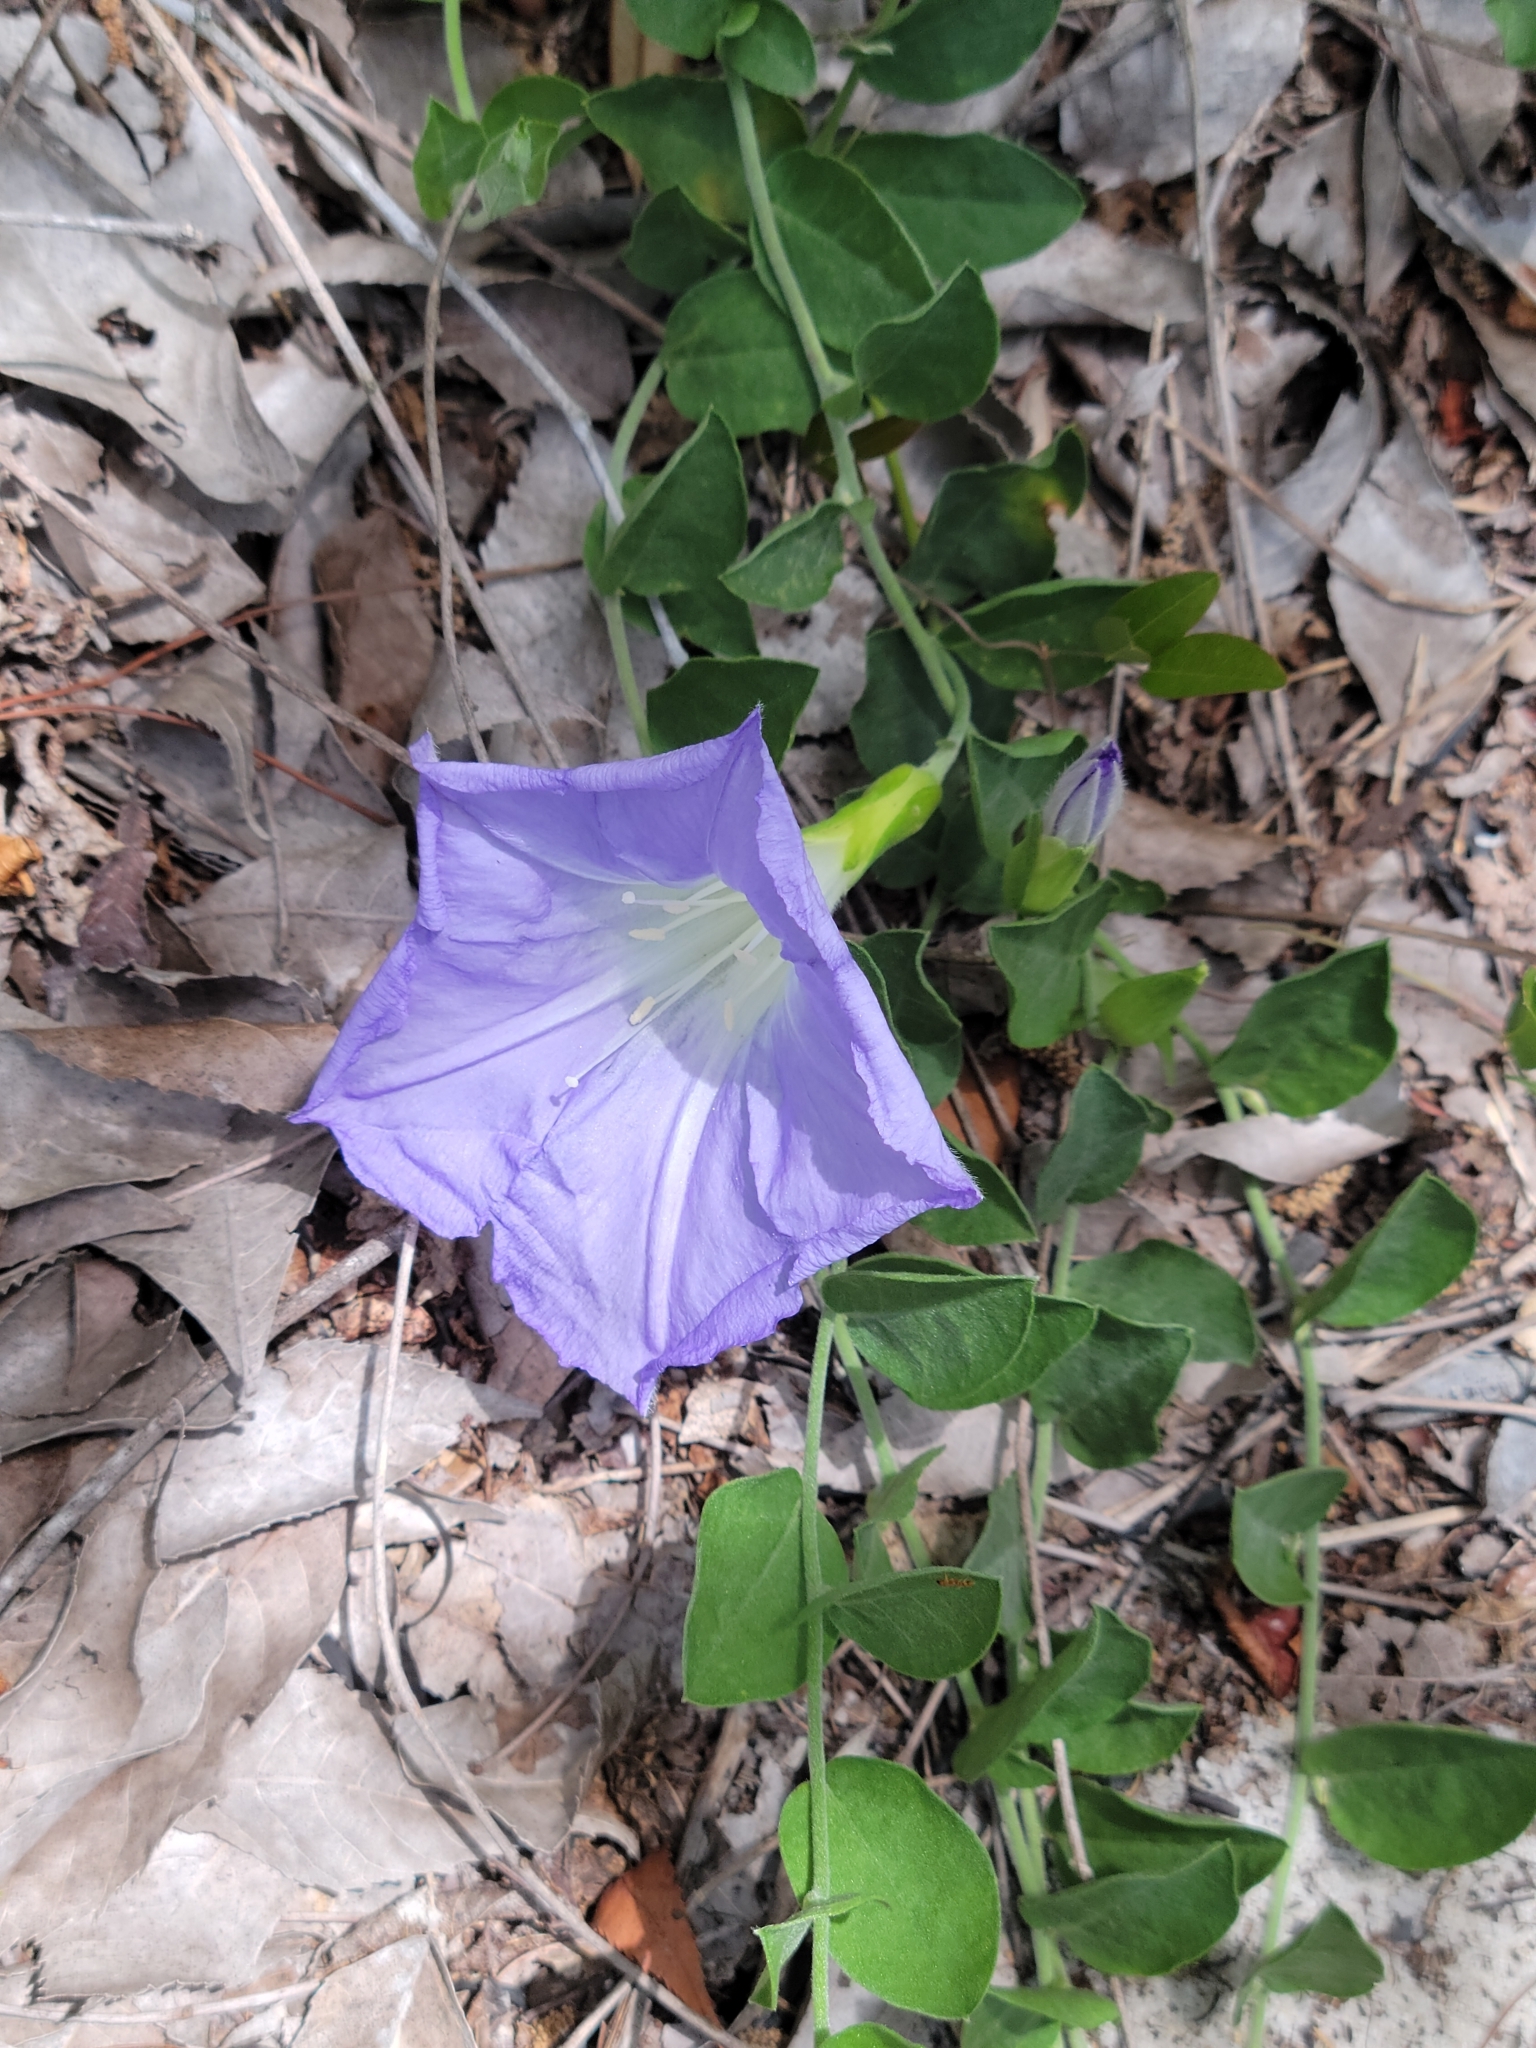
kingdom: Plantae
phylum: Tracheophyta
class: Magnoliopsida
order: Solanales
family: Convolvulaceae
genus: Bonamia
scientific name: Bonamia grandiflora
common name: Florida bonamia
